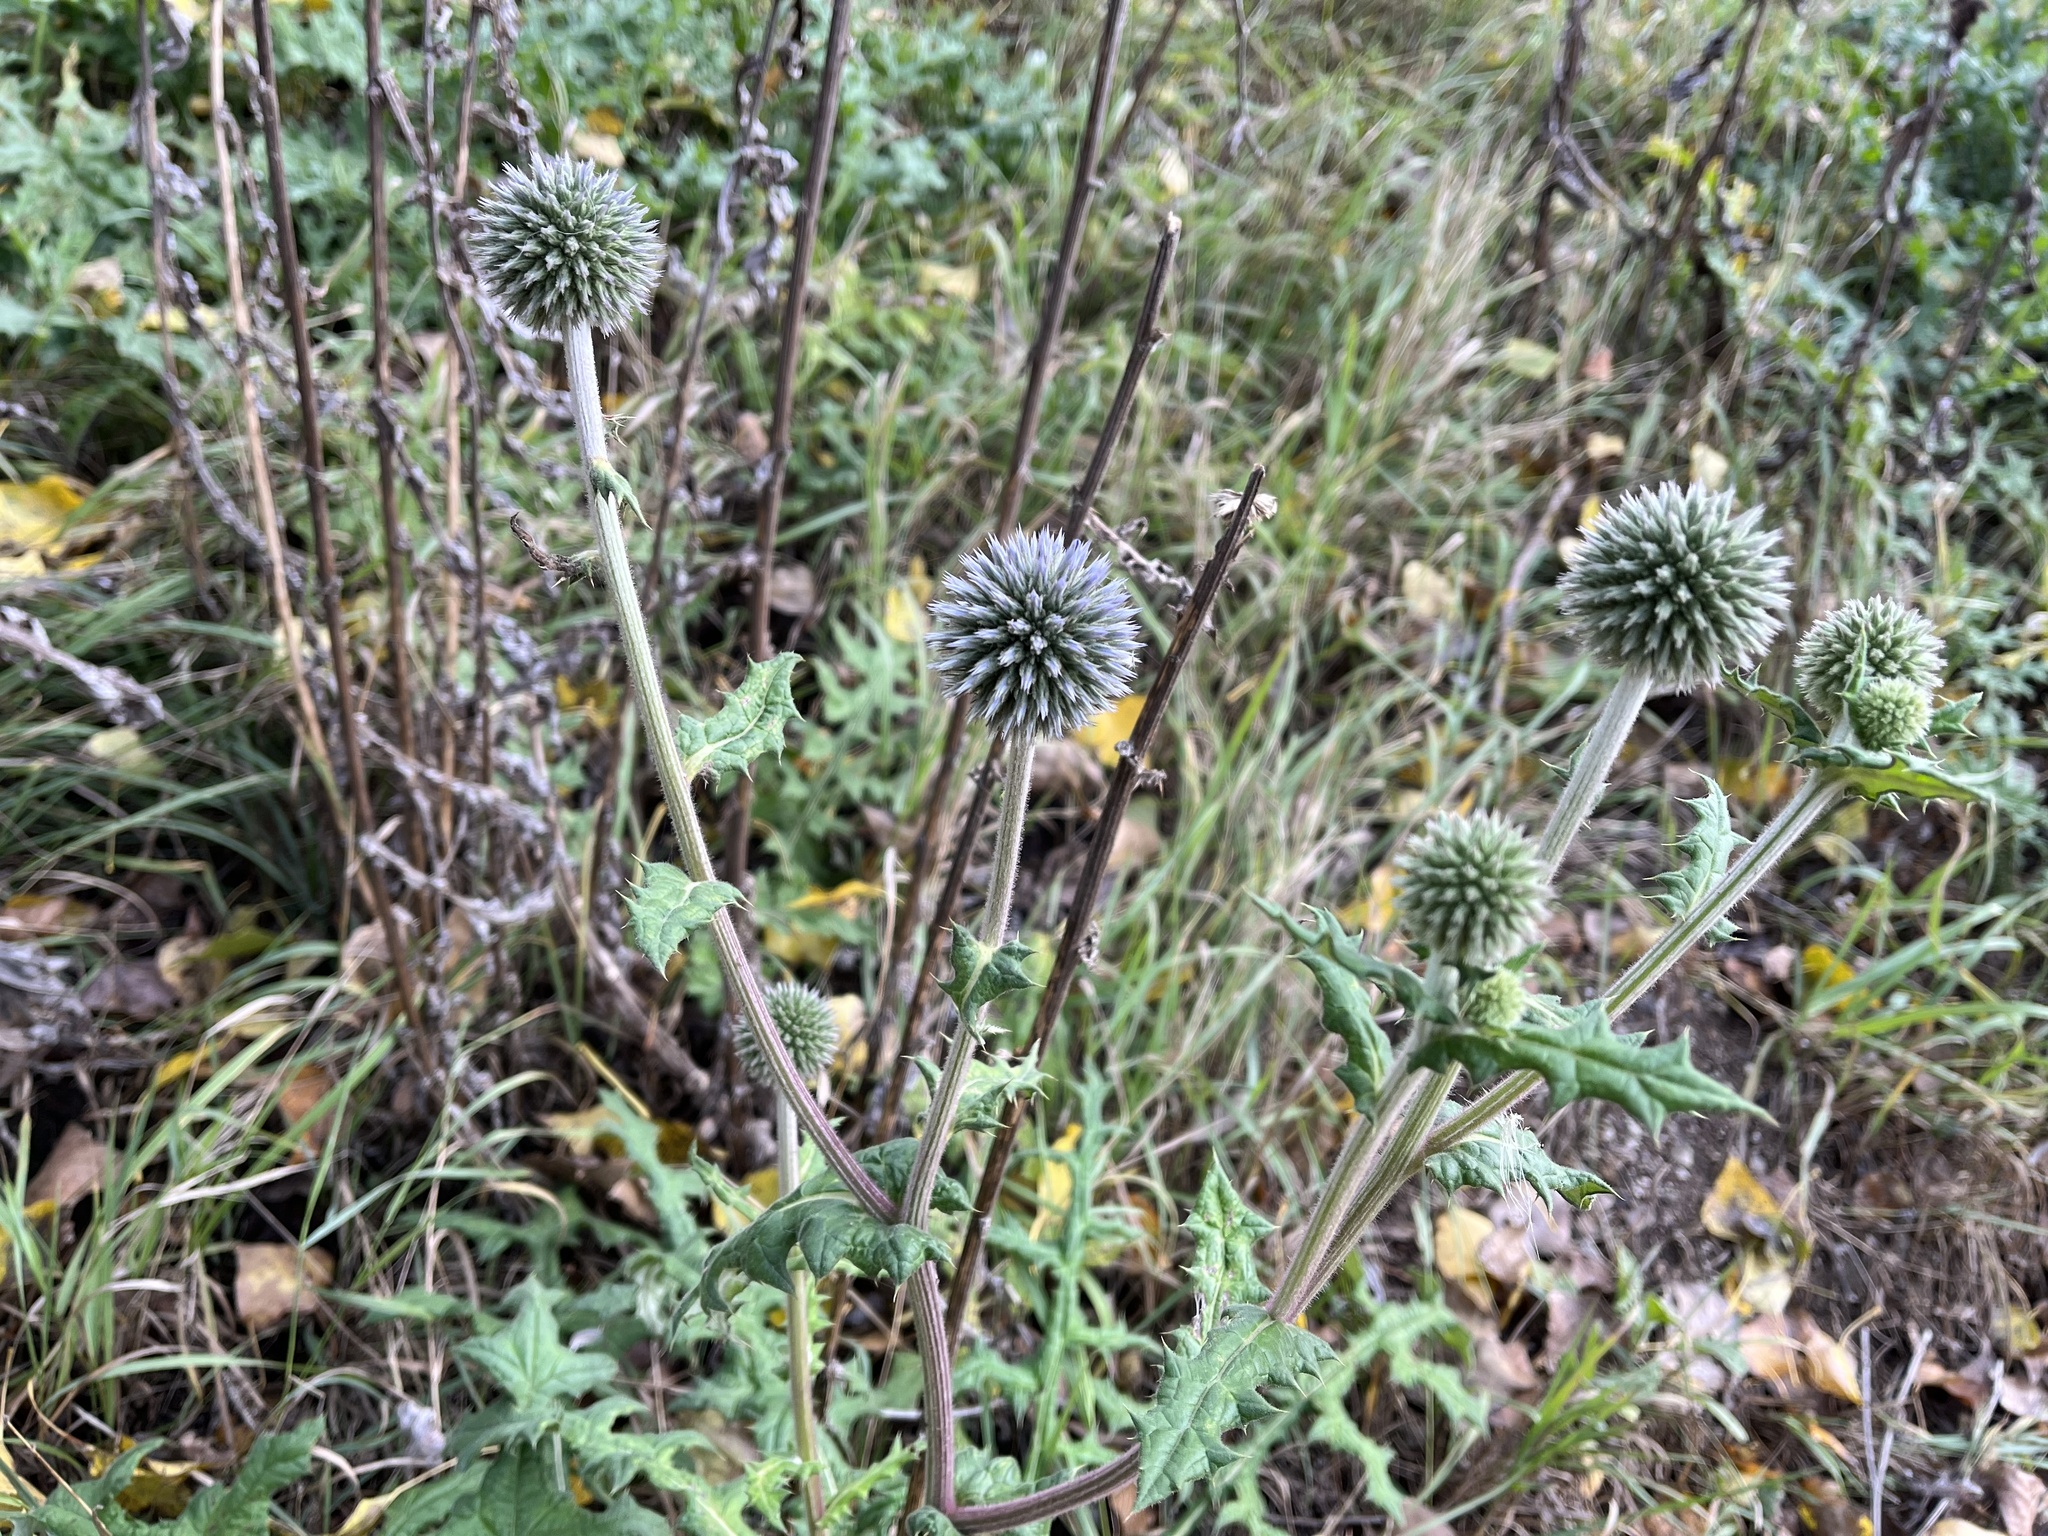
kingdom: Plantae
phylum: Tracheophyta
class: Magnoliopsida
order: Asterales
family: Asteraceae
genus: Echinops
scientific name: Echinops sphaerocephalus
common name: Glandular globe-thistle
